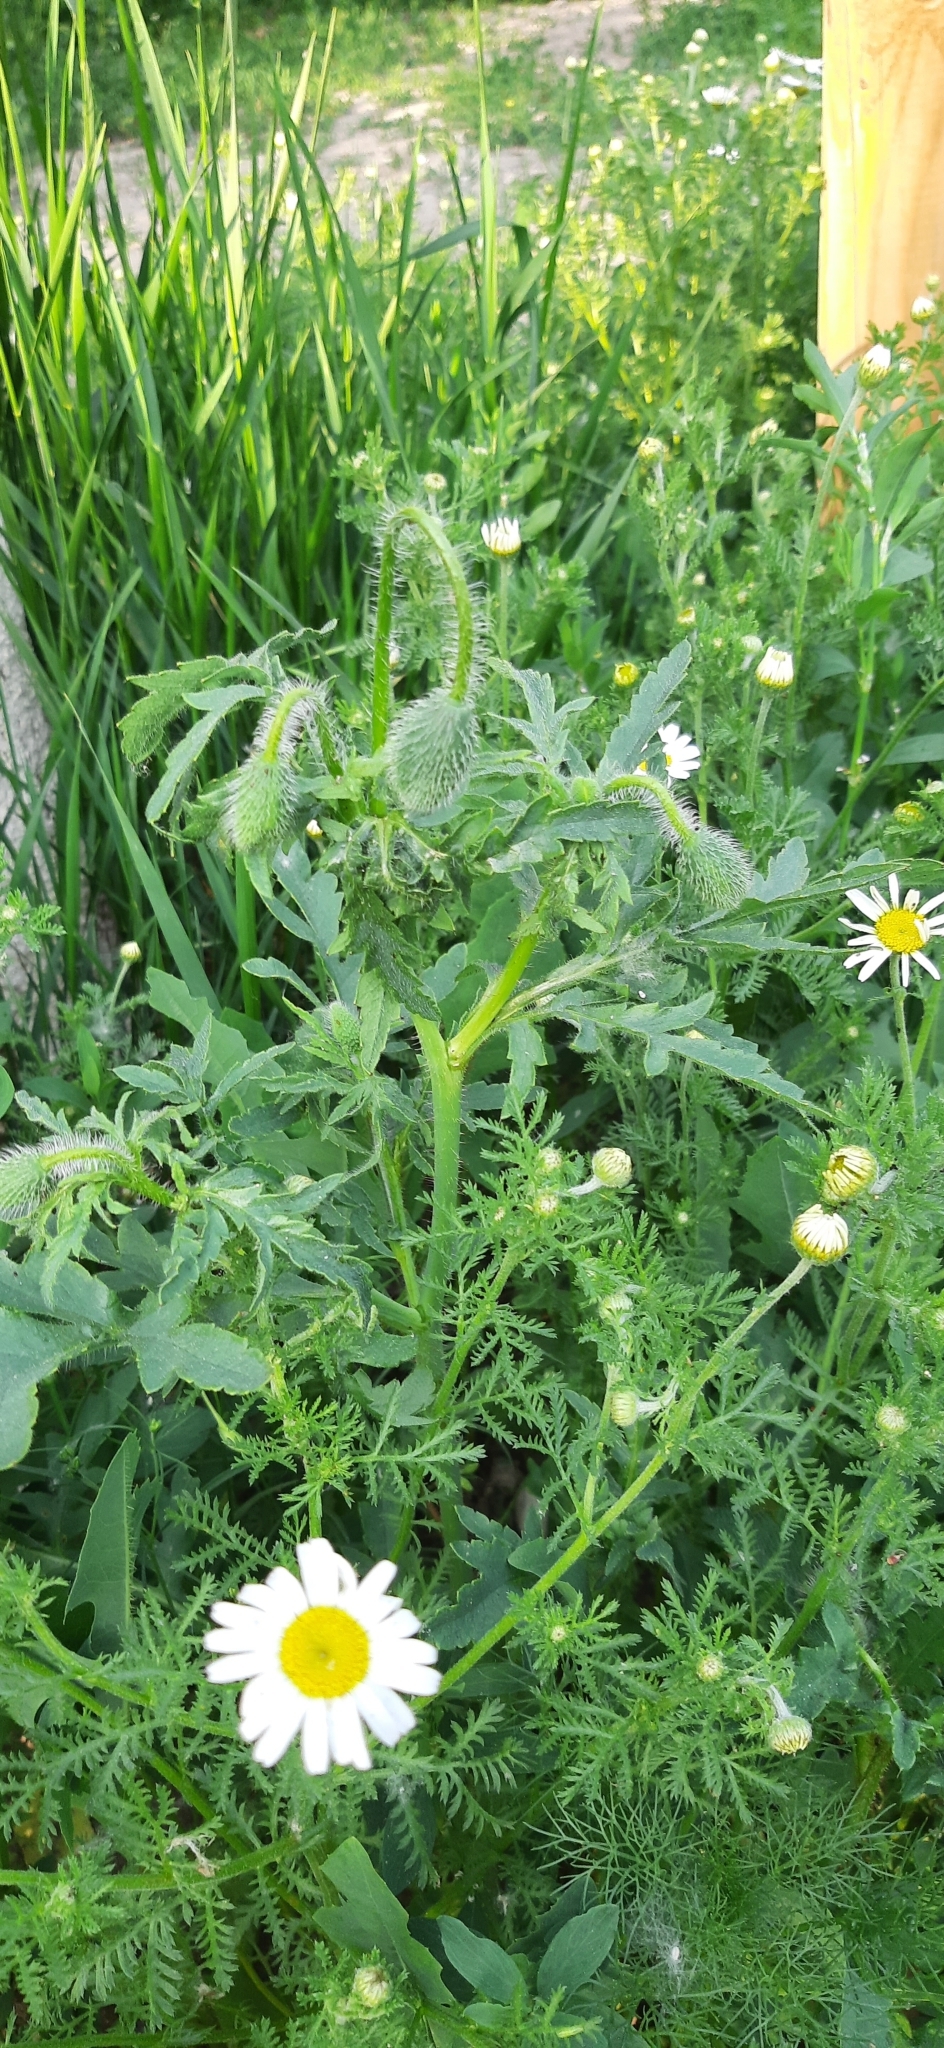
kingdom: Plantae
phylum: Tracheophyta
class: Magnoliopsida
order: Asterales
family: Asteraceae
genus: Cota
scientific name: Cota austriaca
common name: Austrian chamomile
